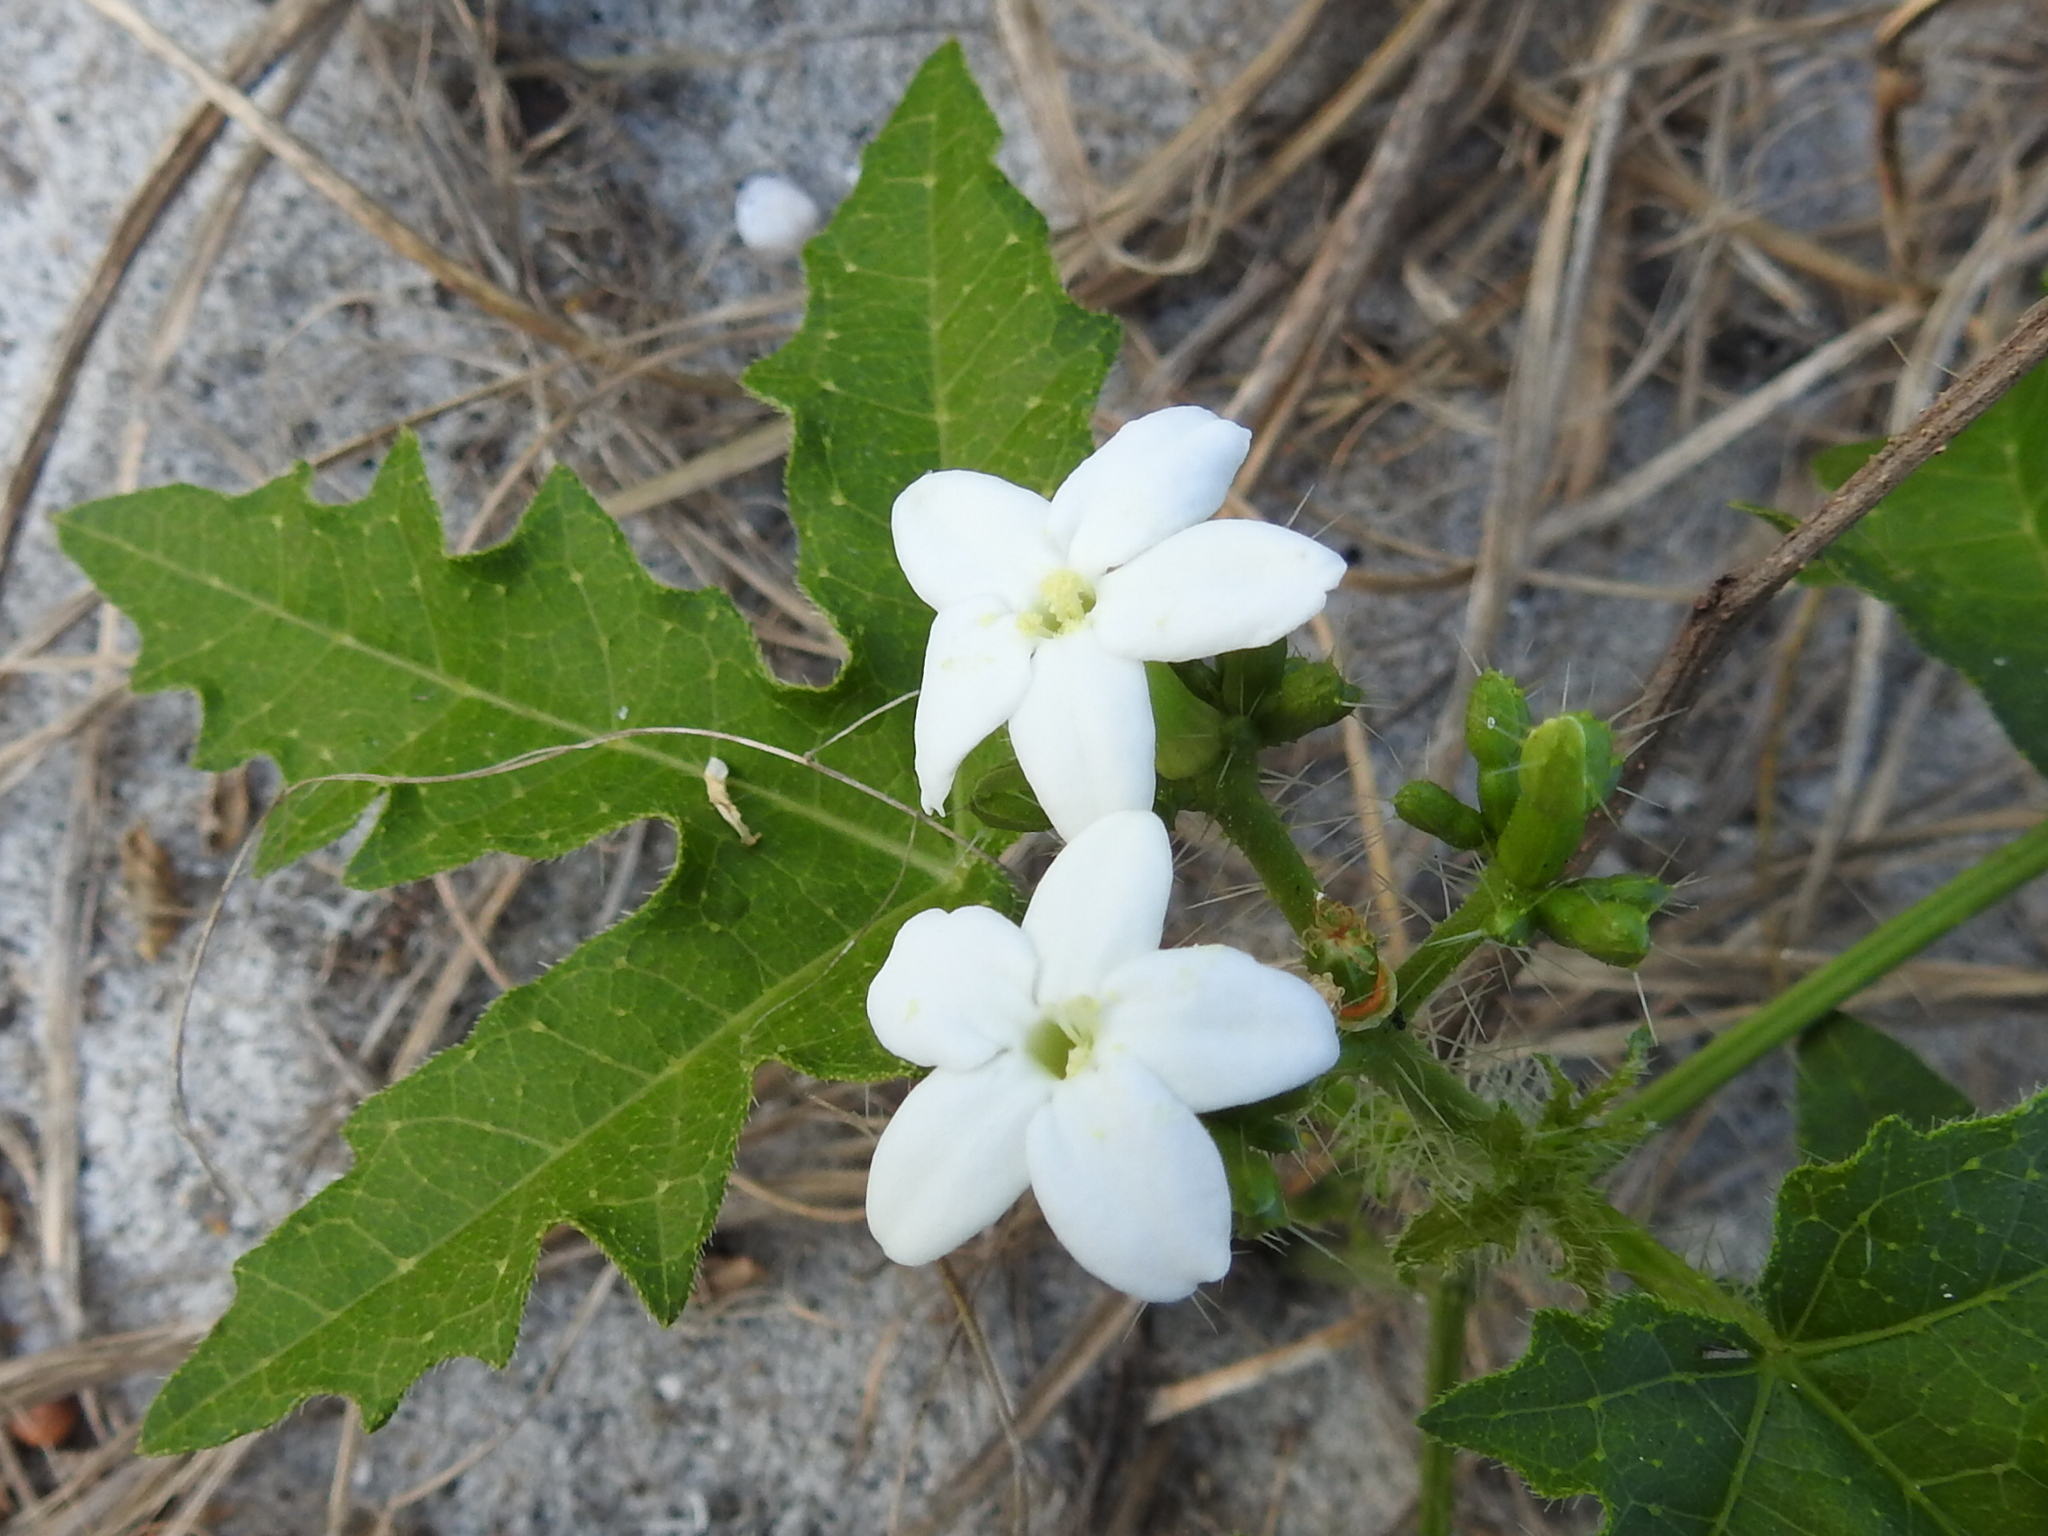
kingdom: Plantae
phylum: Tracheophyta
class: Magnoliopsida
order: Malpighiales
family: Euphorbiaceae
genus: Cnidoscolus
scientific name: Cnidoscolus stimulosus
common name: Bull-nettle
